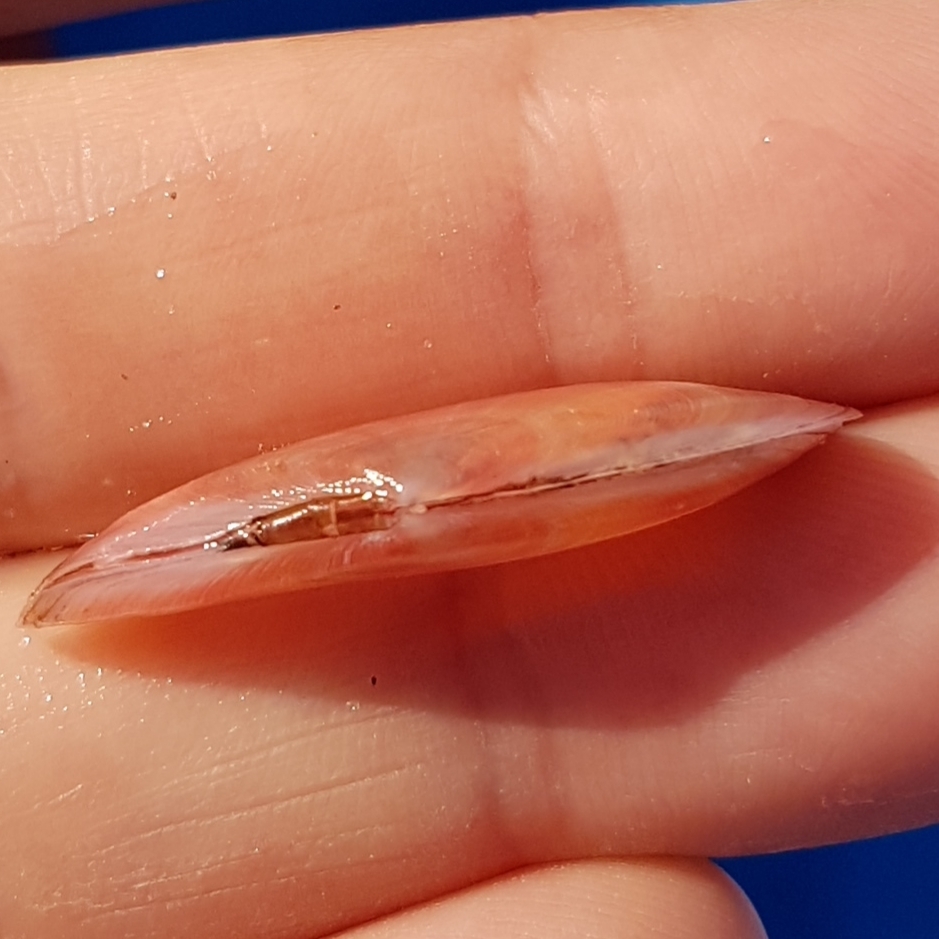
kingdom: Animalia
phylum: Mollusca
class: Bivalvia
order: Cardiida
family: Tellinidae
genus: Moerella
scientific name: Moerella pulchella
